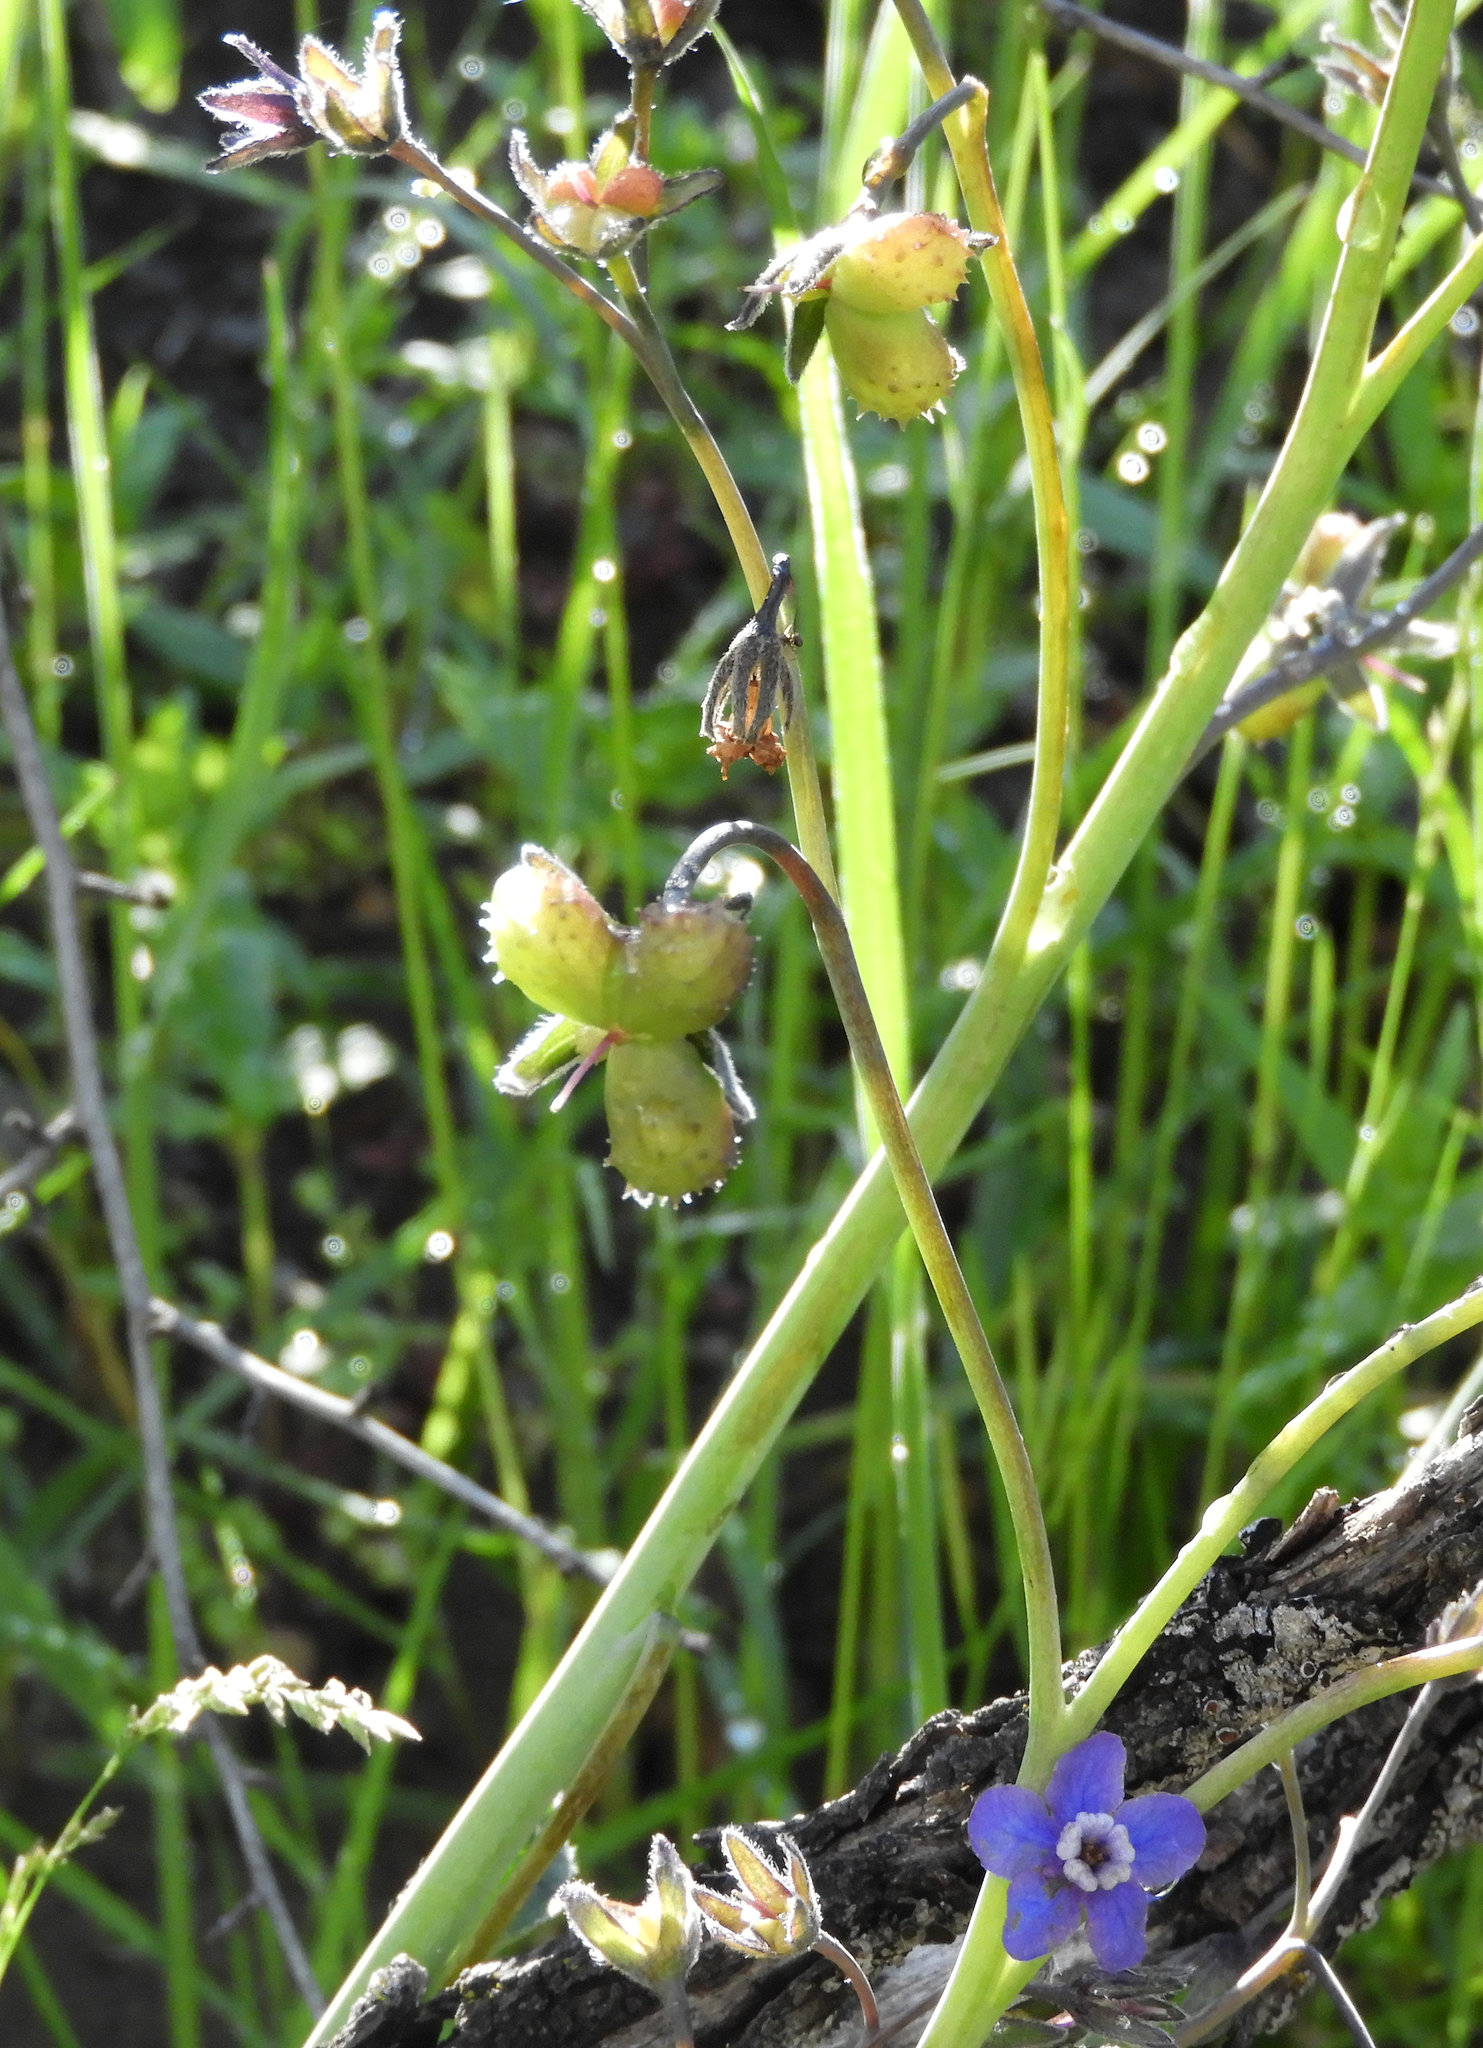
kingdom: Plantae
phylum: Tracheophyta
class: Magnoliopsida
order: Boraginales
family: Boraginaceae
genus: Adelinia
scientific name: Adelinia grande
